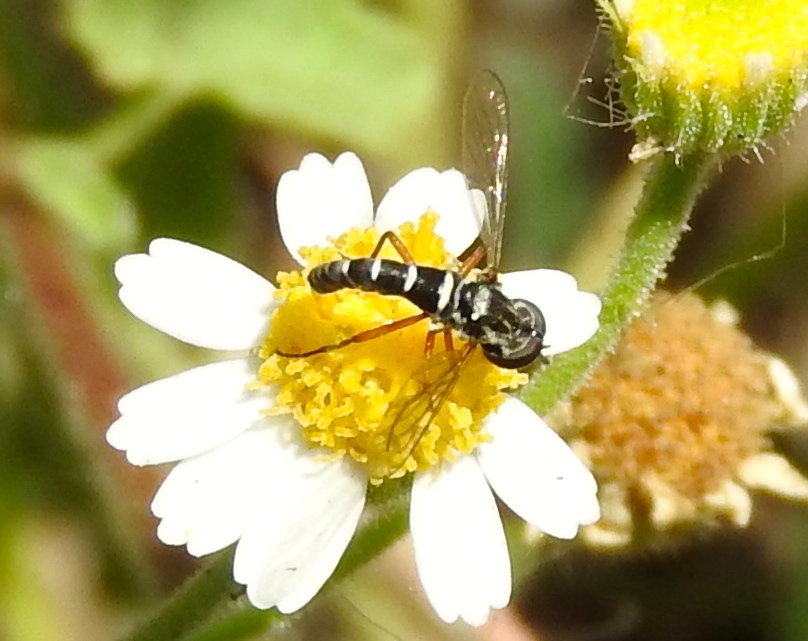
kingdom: Animalia
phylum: Arthropoda
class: Insecta
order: Diptera
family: Bombyliidae
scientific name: Bombyliidae
